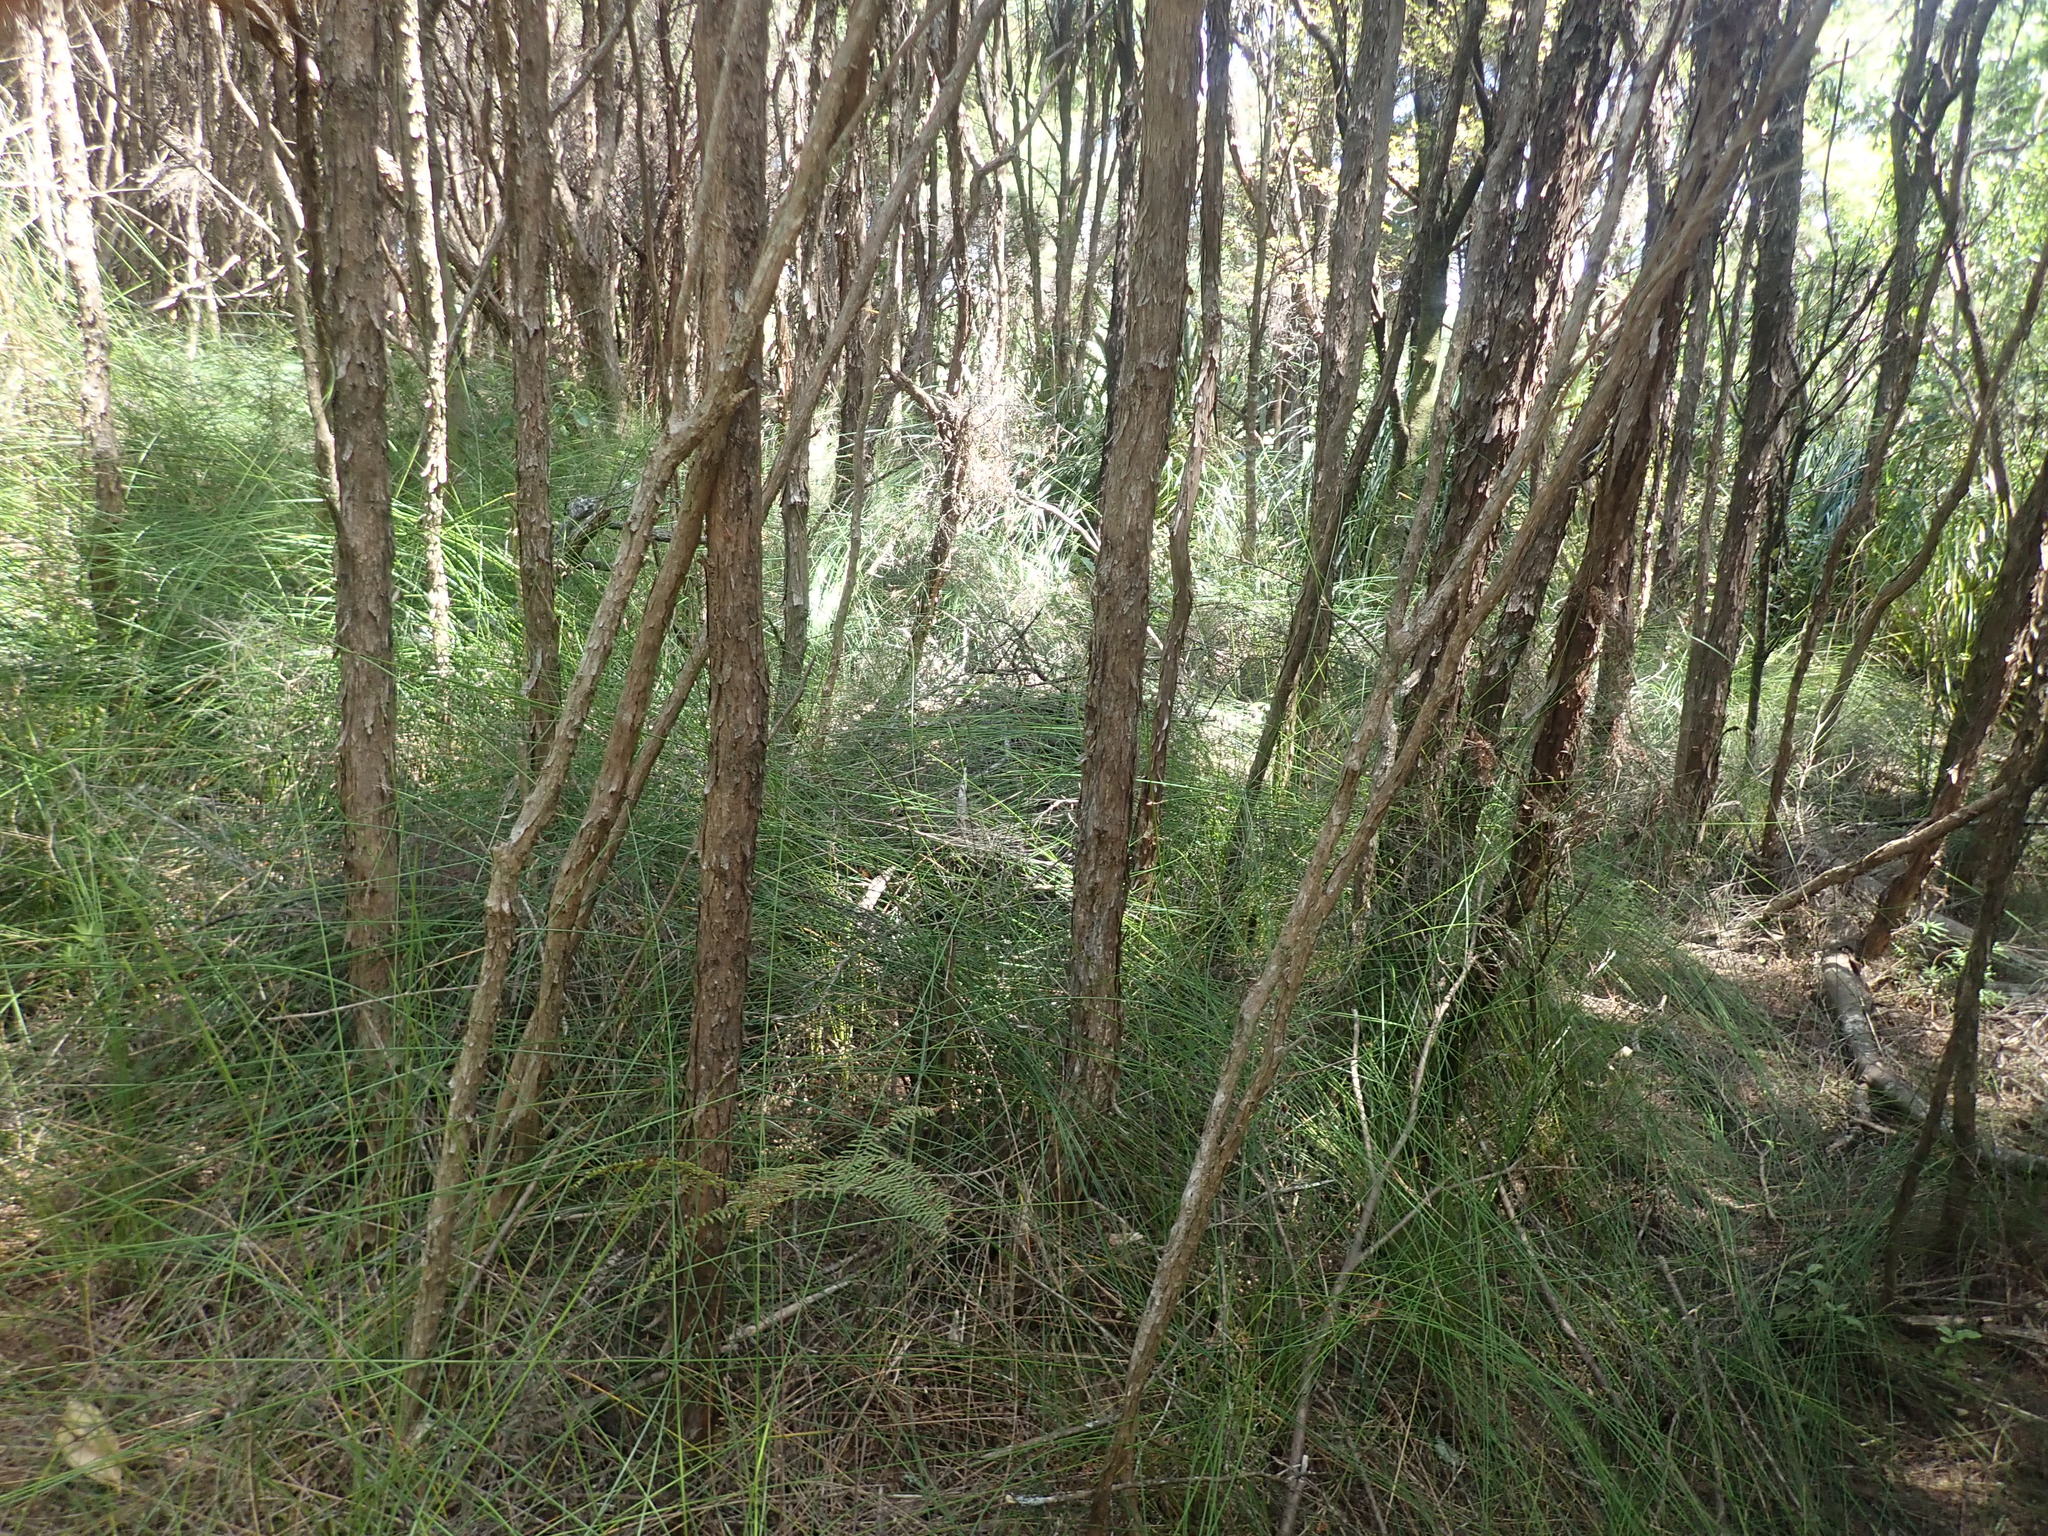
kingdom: Plantae
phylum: Tracheophyta
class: Liliopsida
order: Poales
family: Cyperaceae
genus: Schoenus
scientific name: Schoenus tendo
